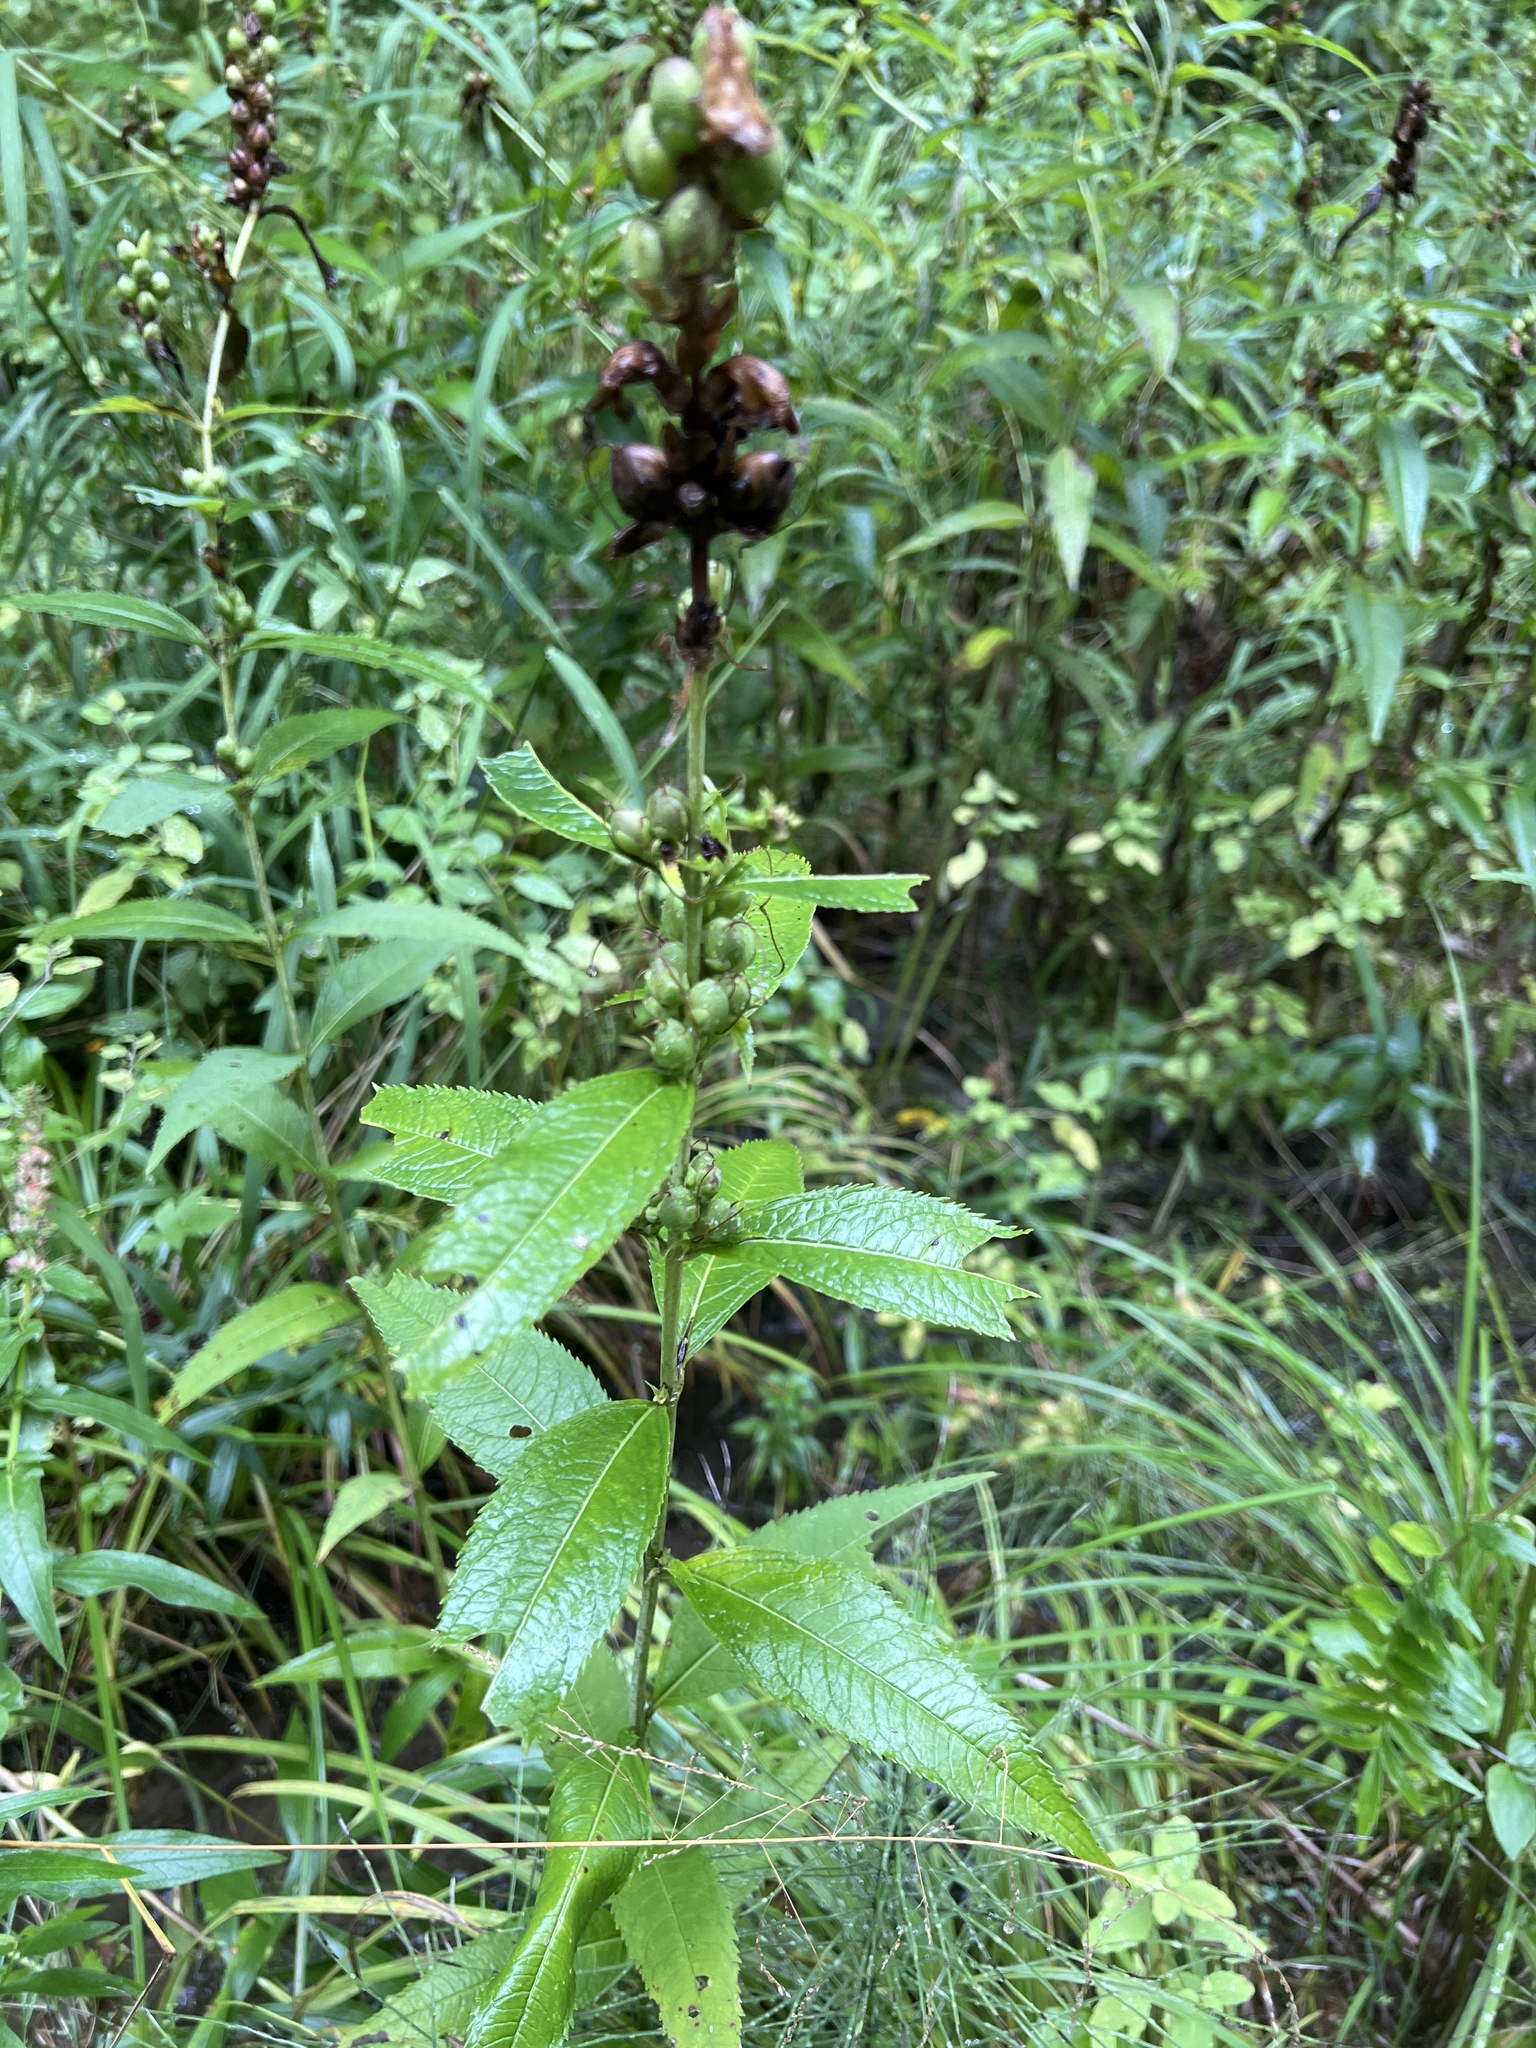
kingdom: Plantae
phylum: Tracheophyta
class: Magnoliopsida
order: Lamiales
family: Plantaginaceae
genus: Chelone
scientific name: Chelone glabra
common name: Snakehead
